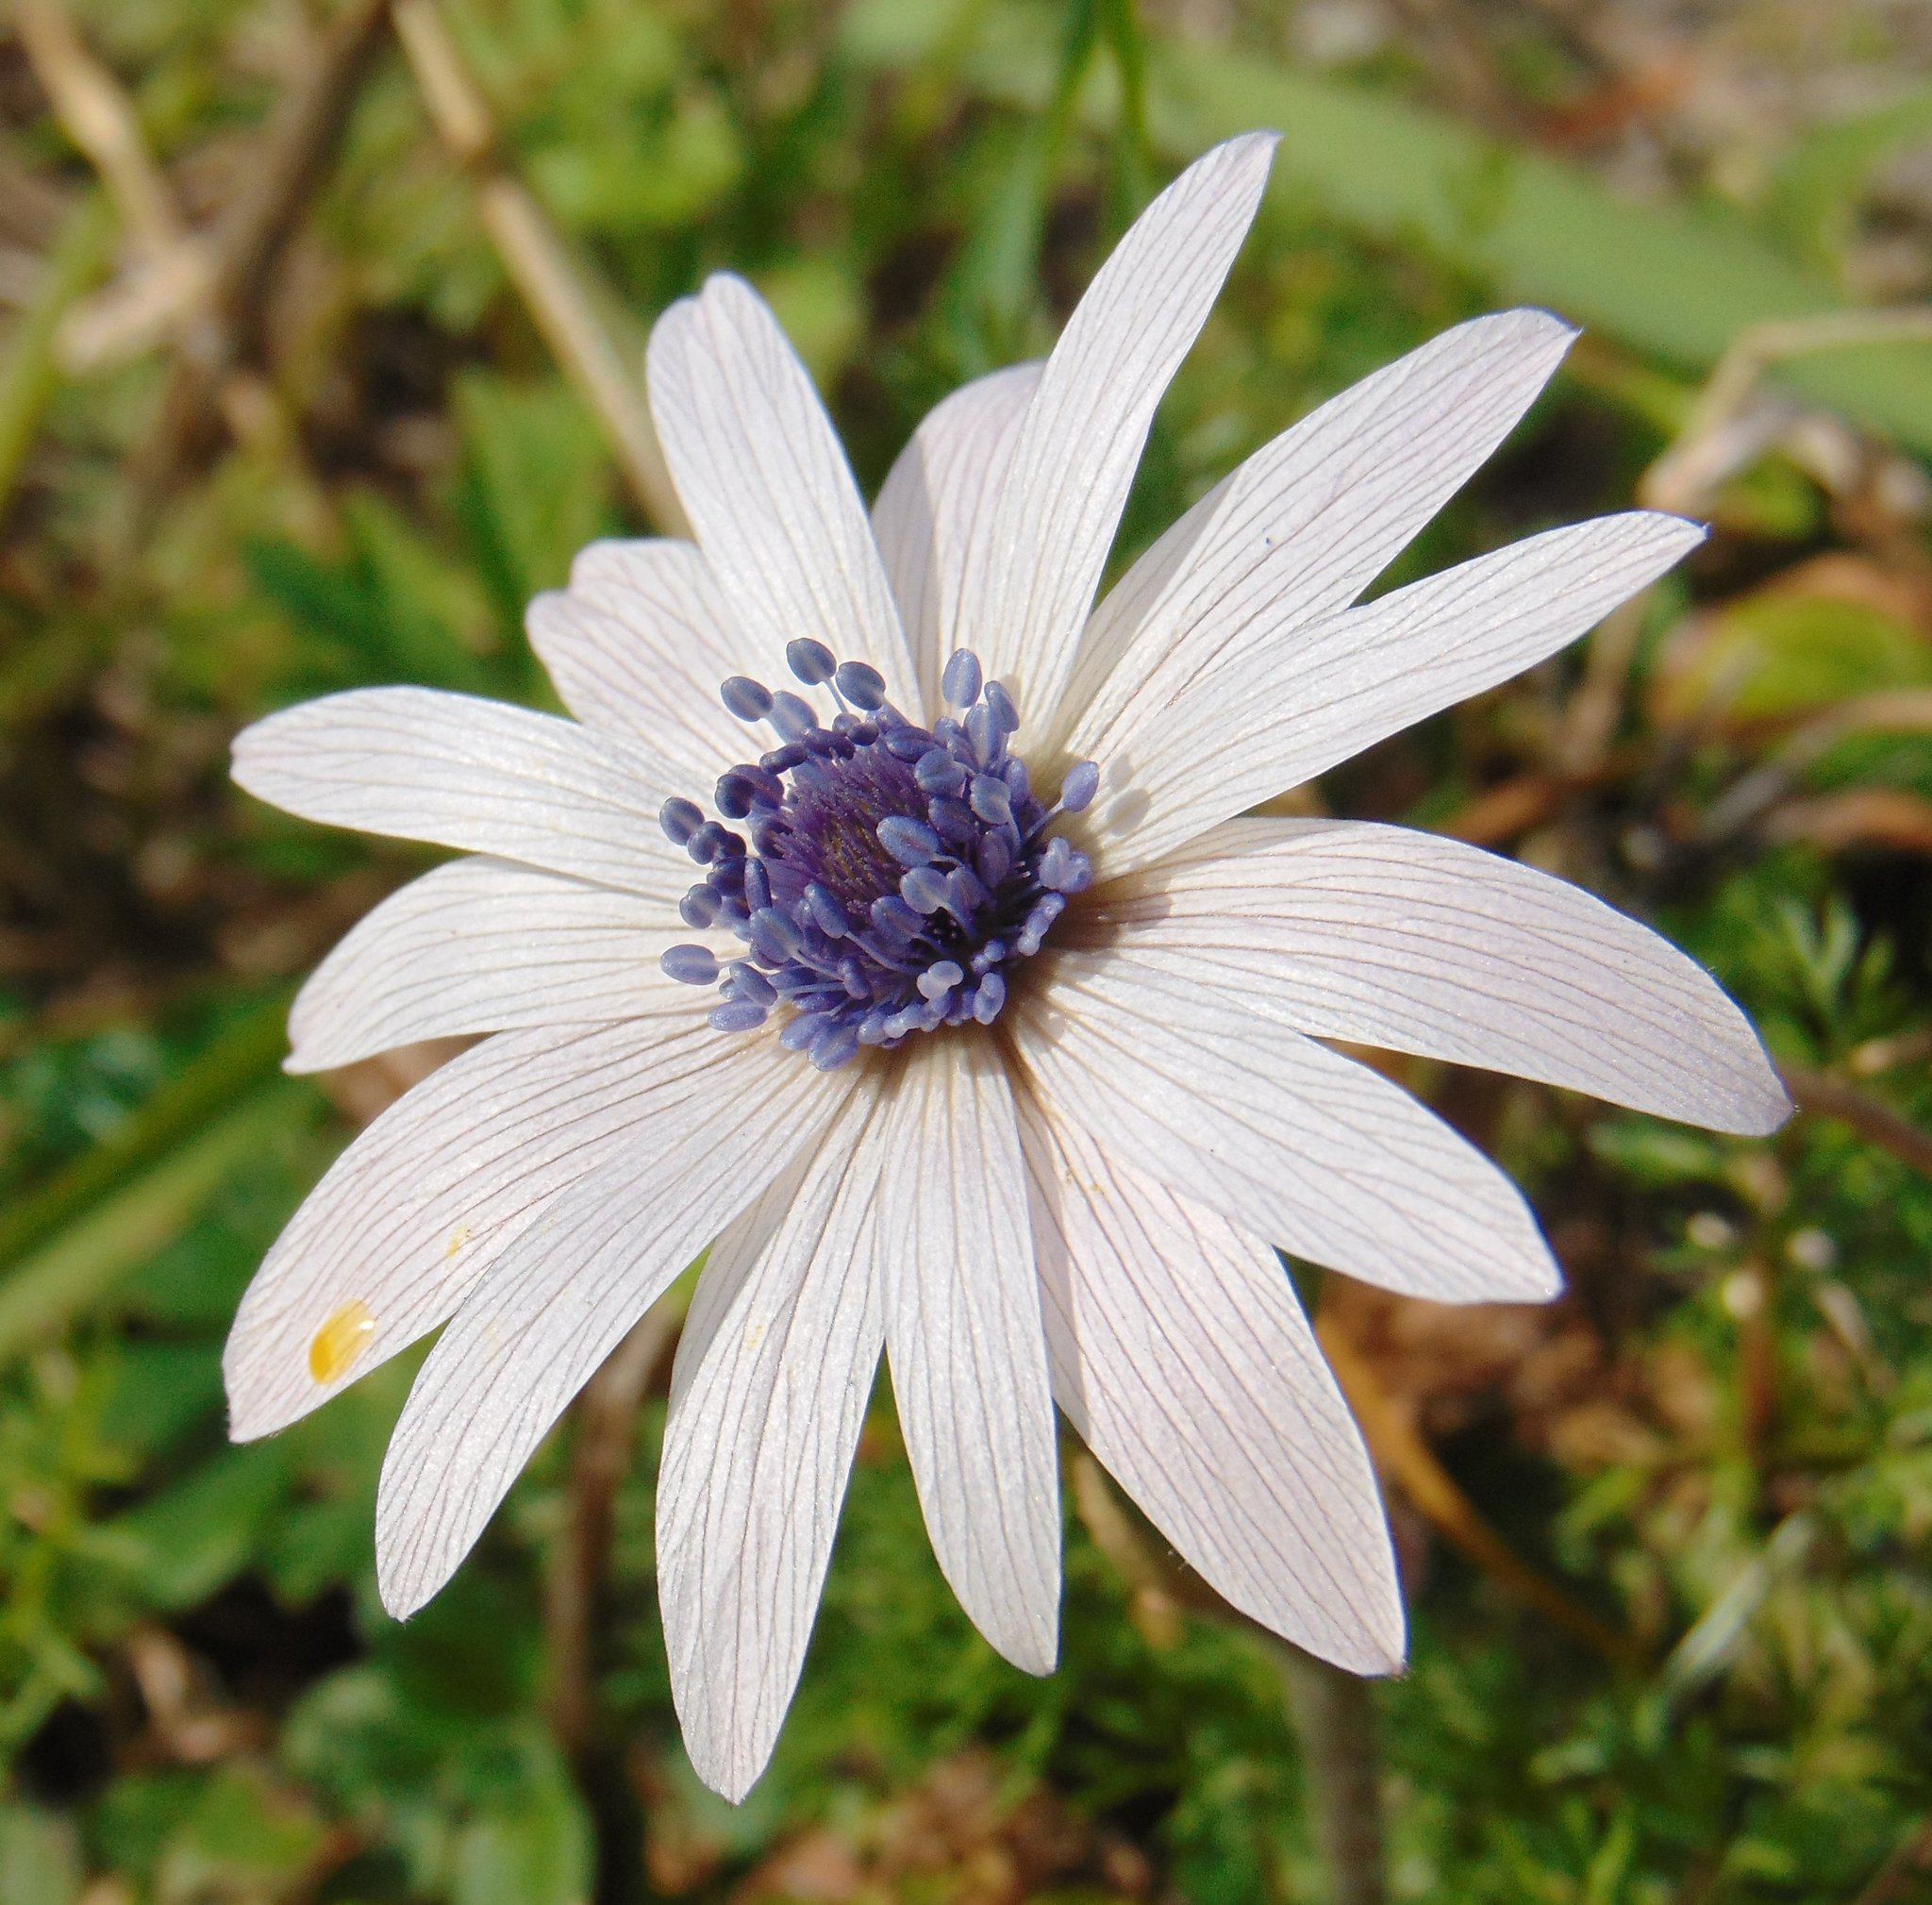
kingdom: Plantae
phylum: Tracheophyta
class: Magnoliopsida
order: Ranunculales
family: Ranunculaceae
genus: Anemone
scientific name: Anemone hortensis
